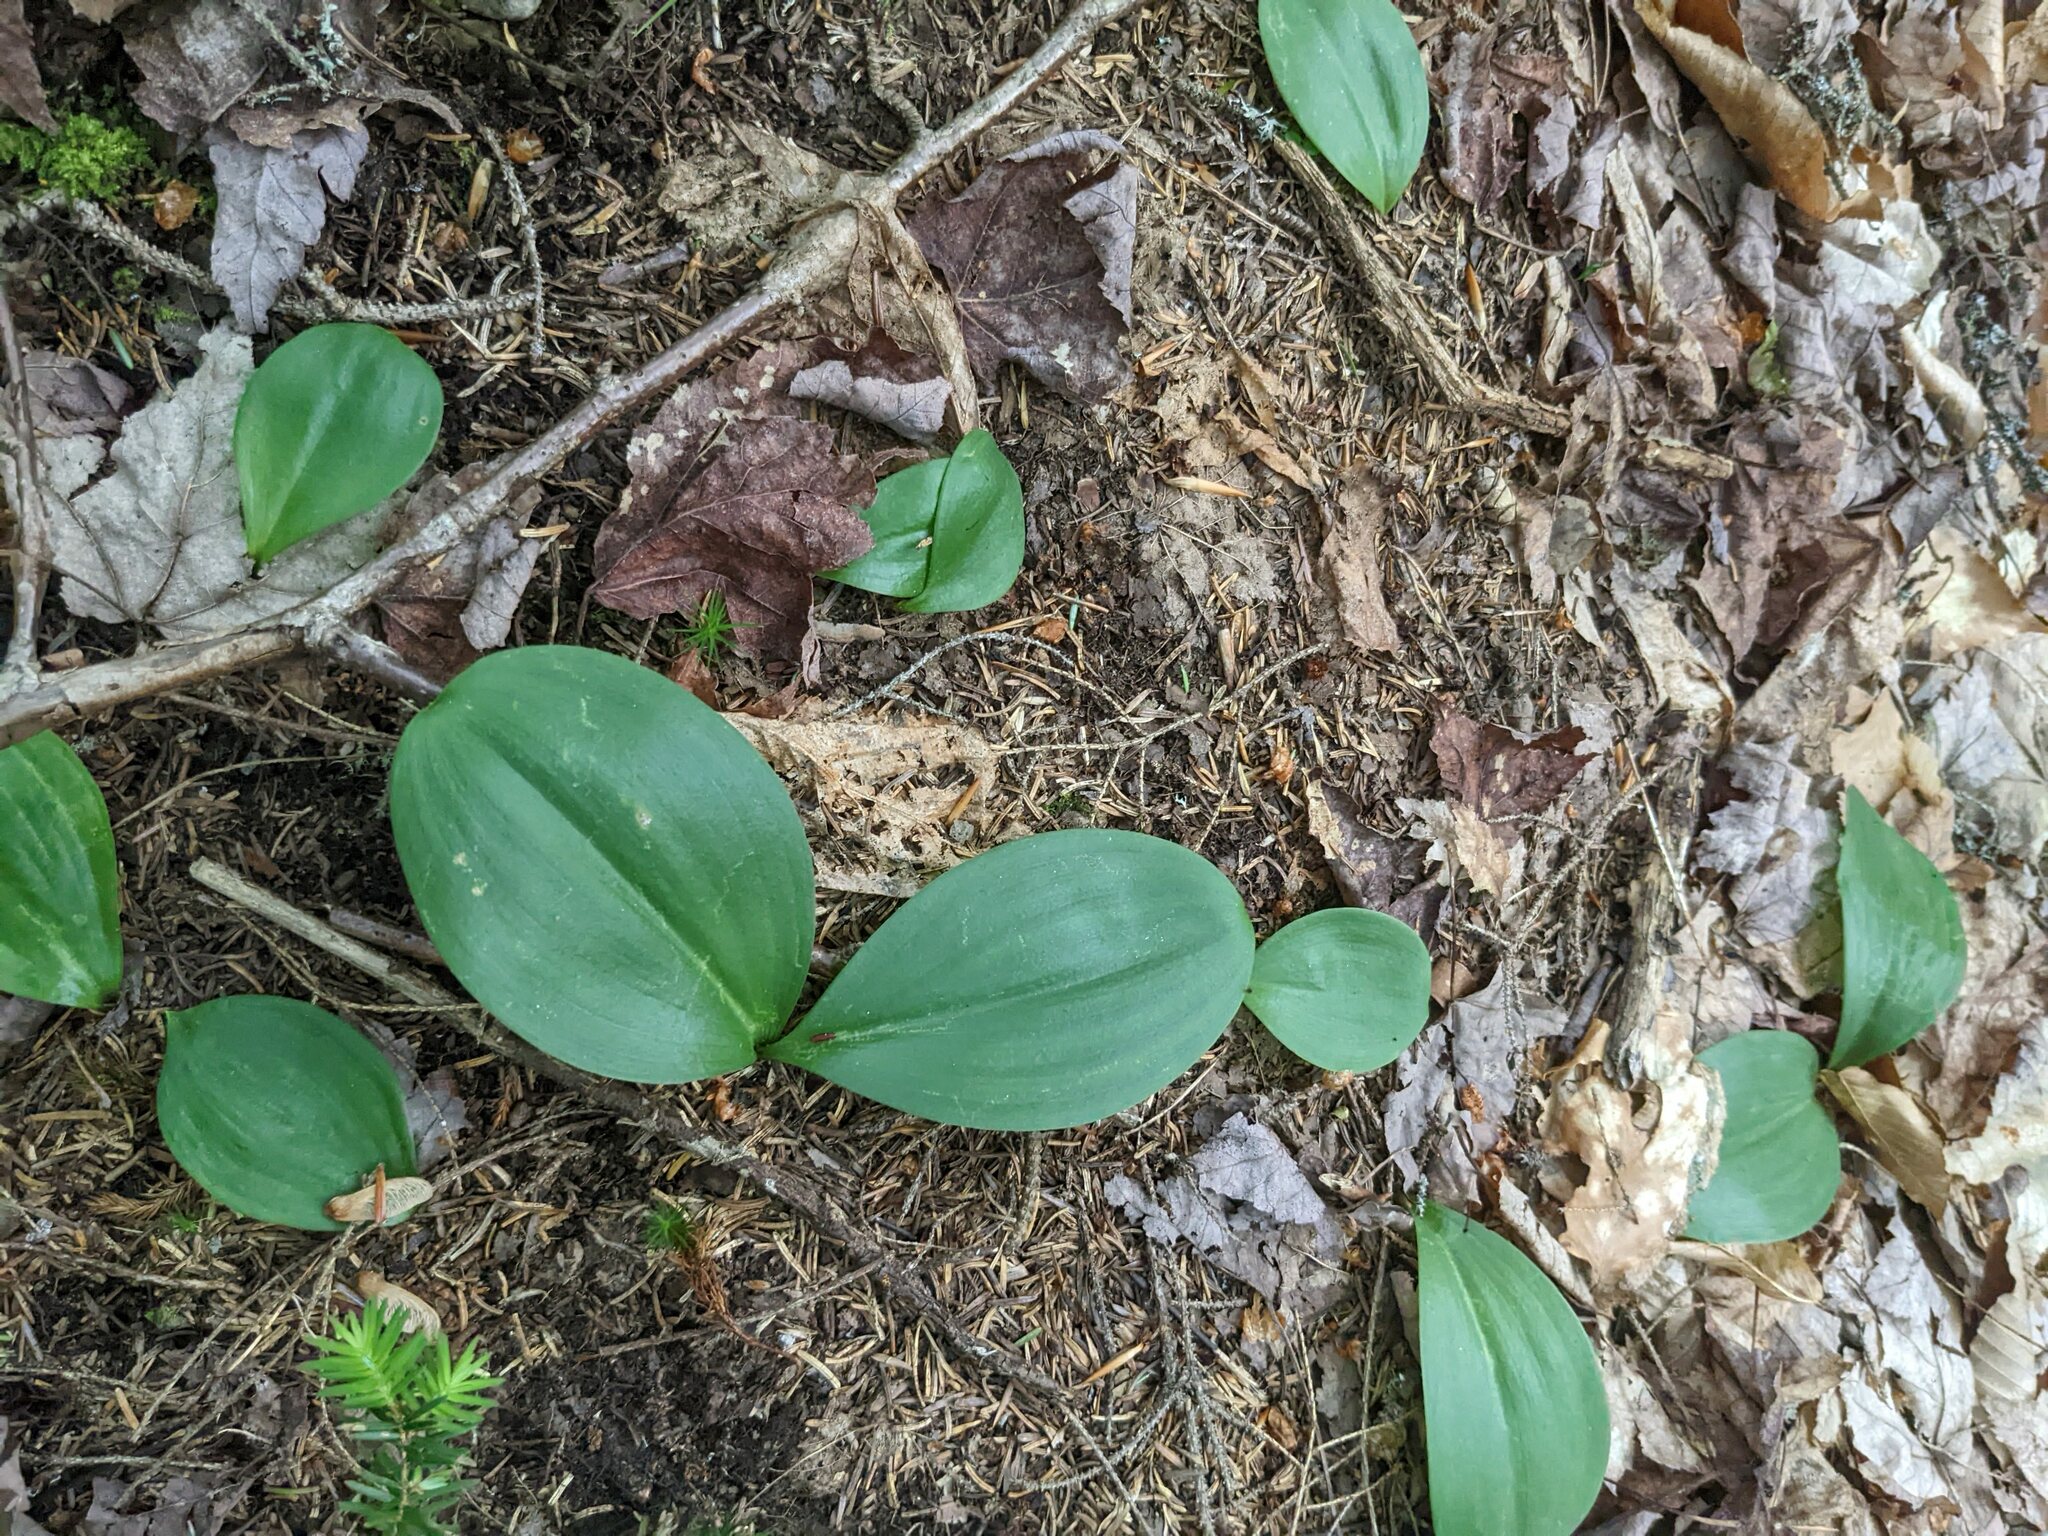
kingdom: Plantae
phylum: Tracheophyta
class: Liliopsida
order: Liliales
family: Liliaceae
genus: Clintonia
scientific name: Clintonia borealis
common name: Yellow clintonia
